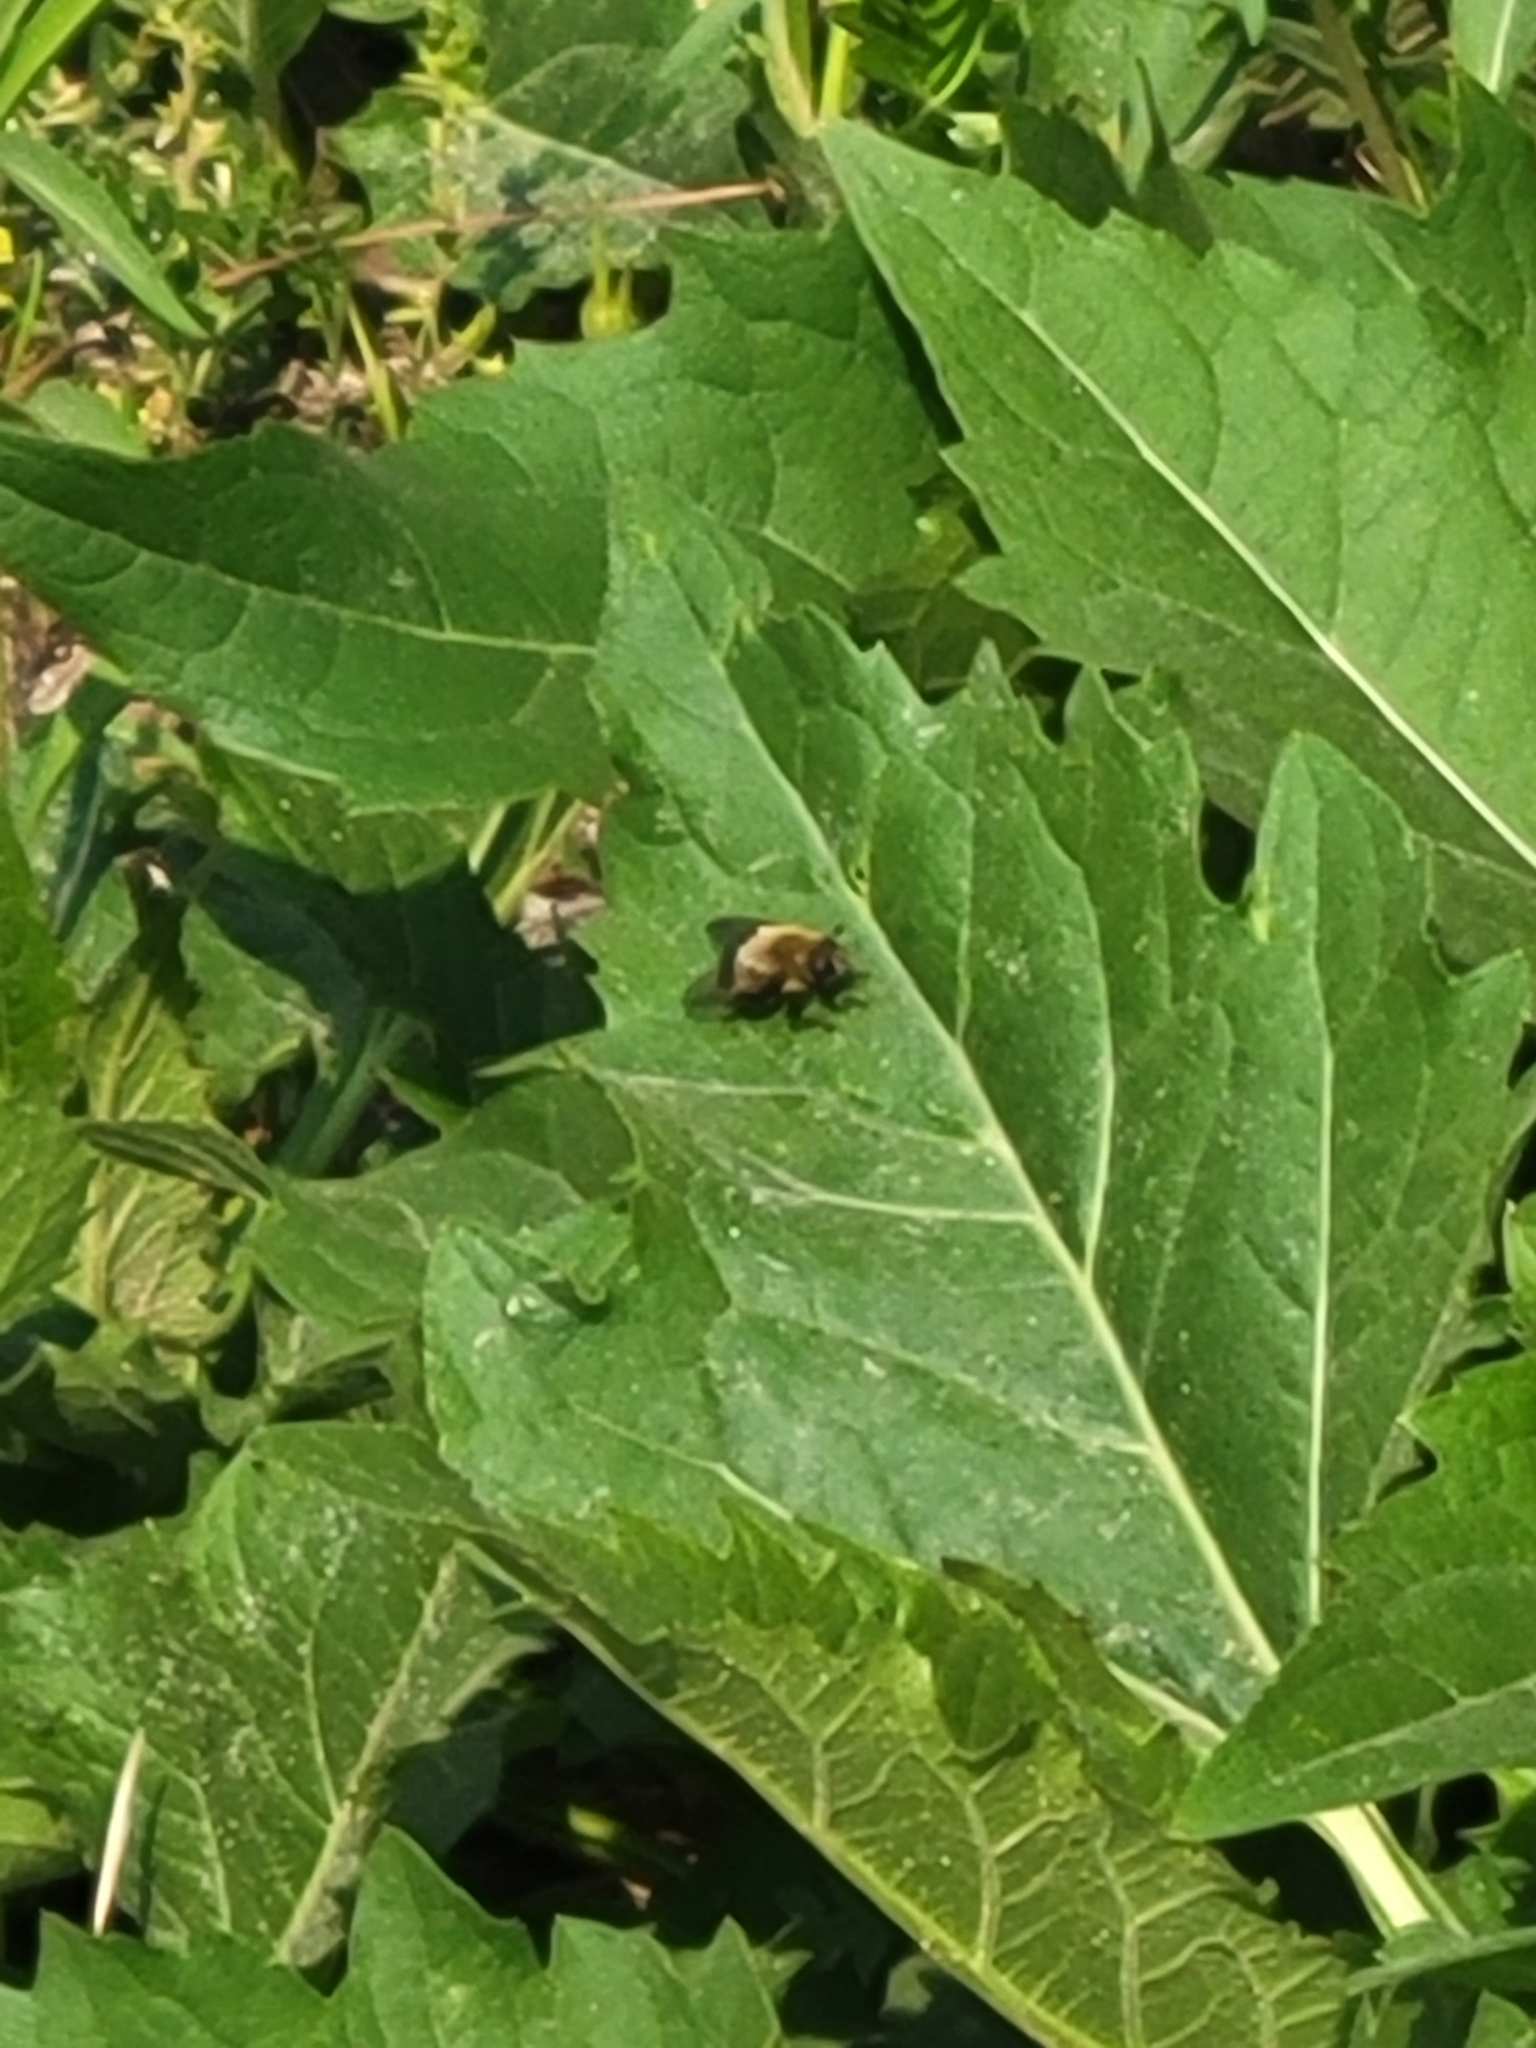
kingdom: Animalia
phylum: Arthropoda
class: Insecta
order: Diptera
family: Syrphidae
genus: Merodon
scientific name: Merodon equestris
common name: Greater bulb-fly
